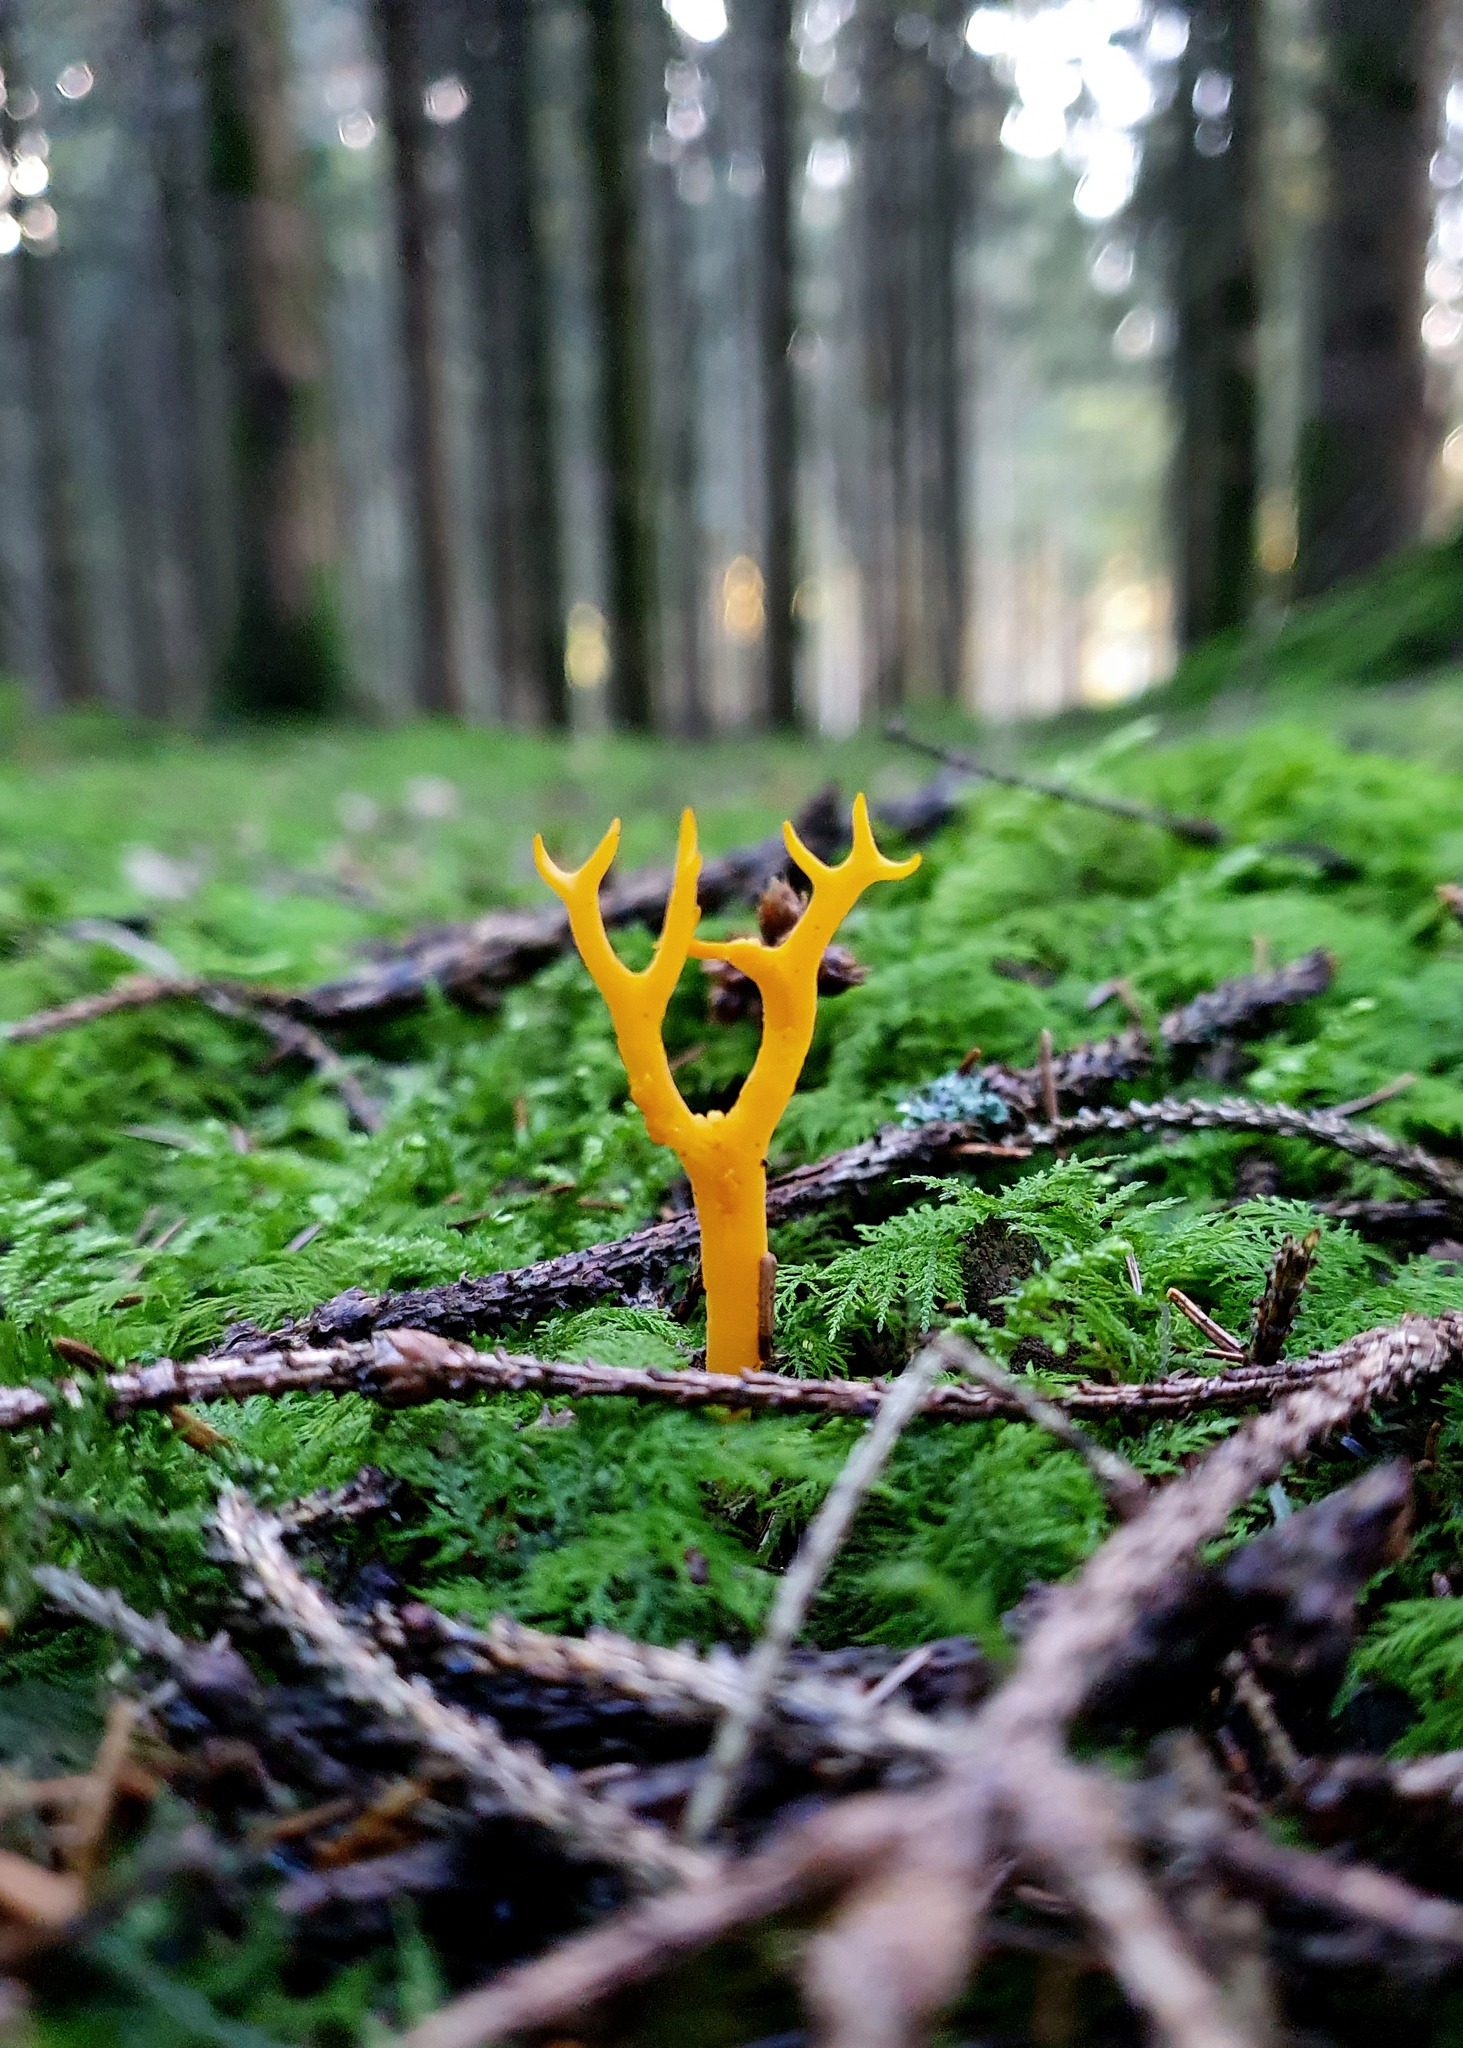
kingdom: Fungi
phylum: Basidiomycota
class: Dacrymycetes
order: Dacrymycetales
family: Dacrymycetaceae
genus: Calocera
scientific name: Calocera viscosa
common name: Yellow stagshorn
